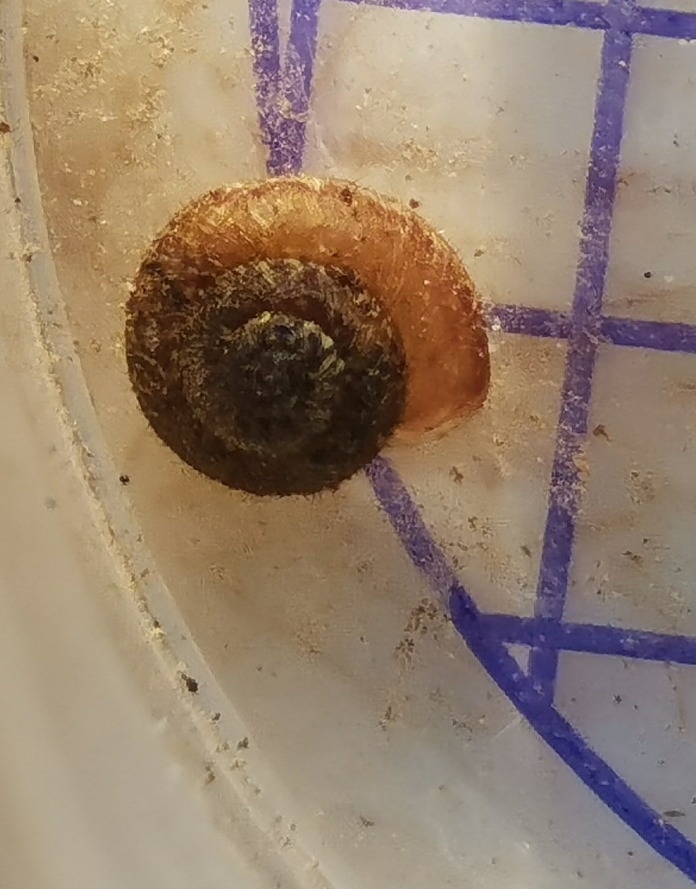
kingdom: Animalia
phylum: Mollusca
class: Gastropoda
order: Stylommatophora
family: Geomitridae
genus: Xerotricha
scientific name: Xerotricha conspurcata
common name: Snail
